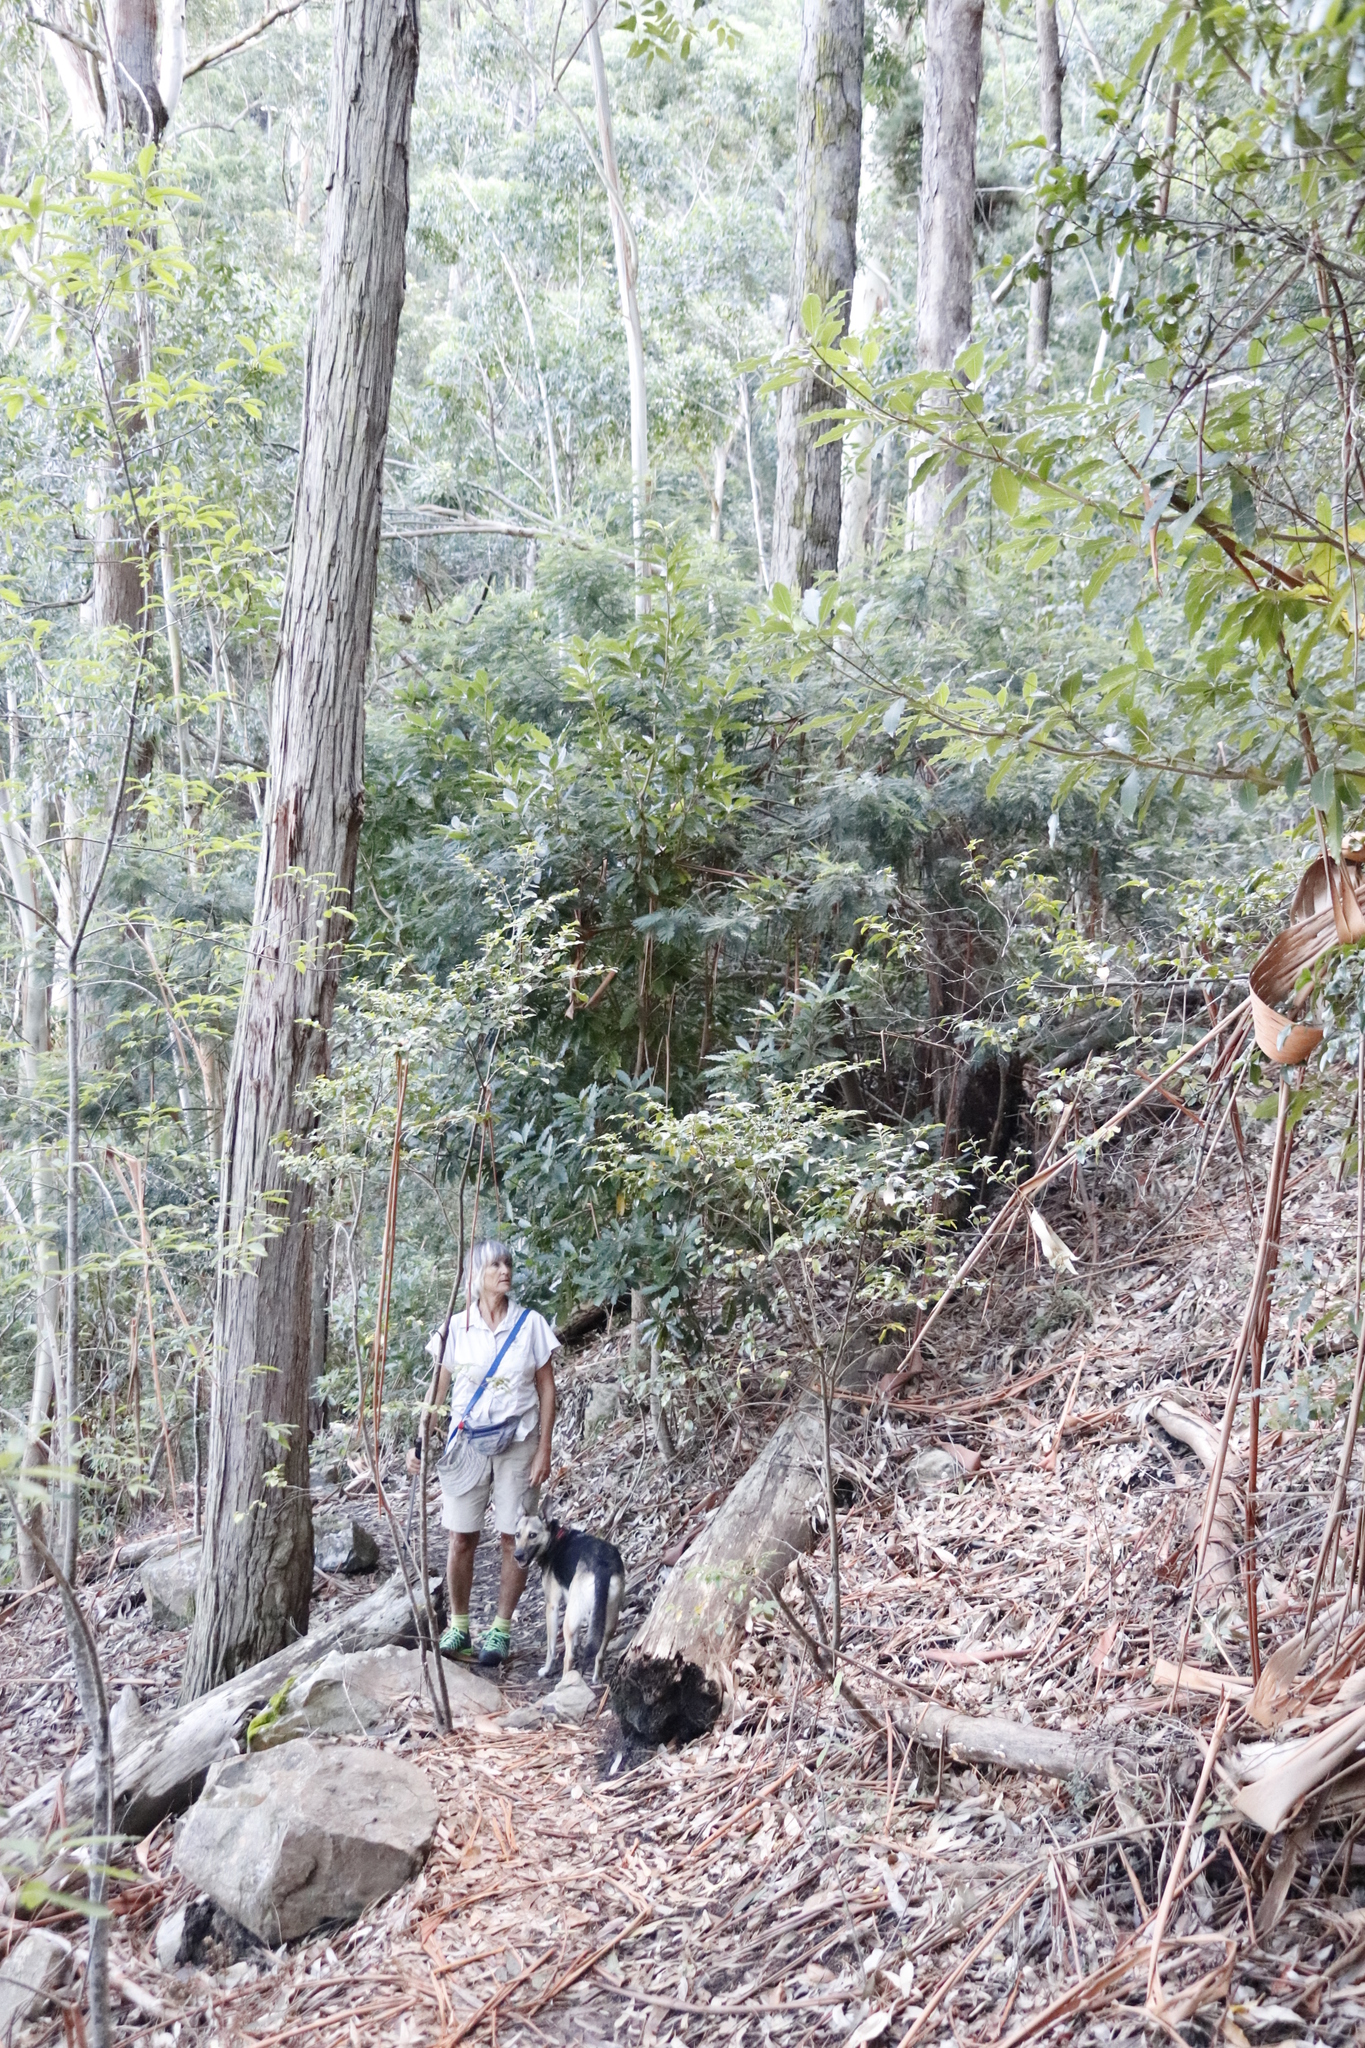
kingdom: Plantae
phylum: Tracheophyta
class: Magnoliopsida
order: Apiales
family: Pittosporaceae
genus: Pittosporum
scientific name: Pittosporum undulatum
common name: Australian cheesewood
